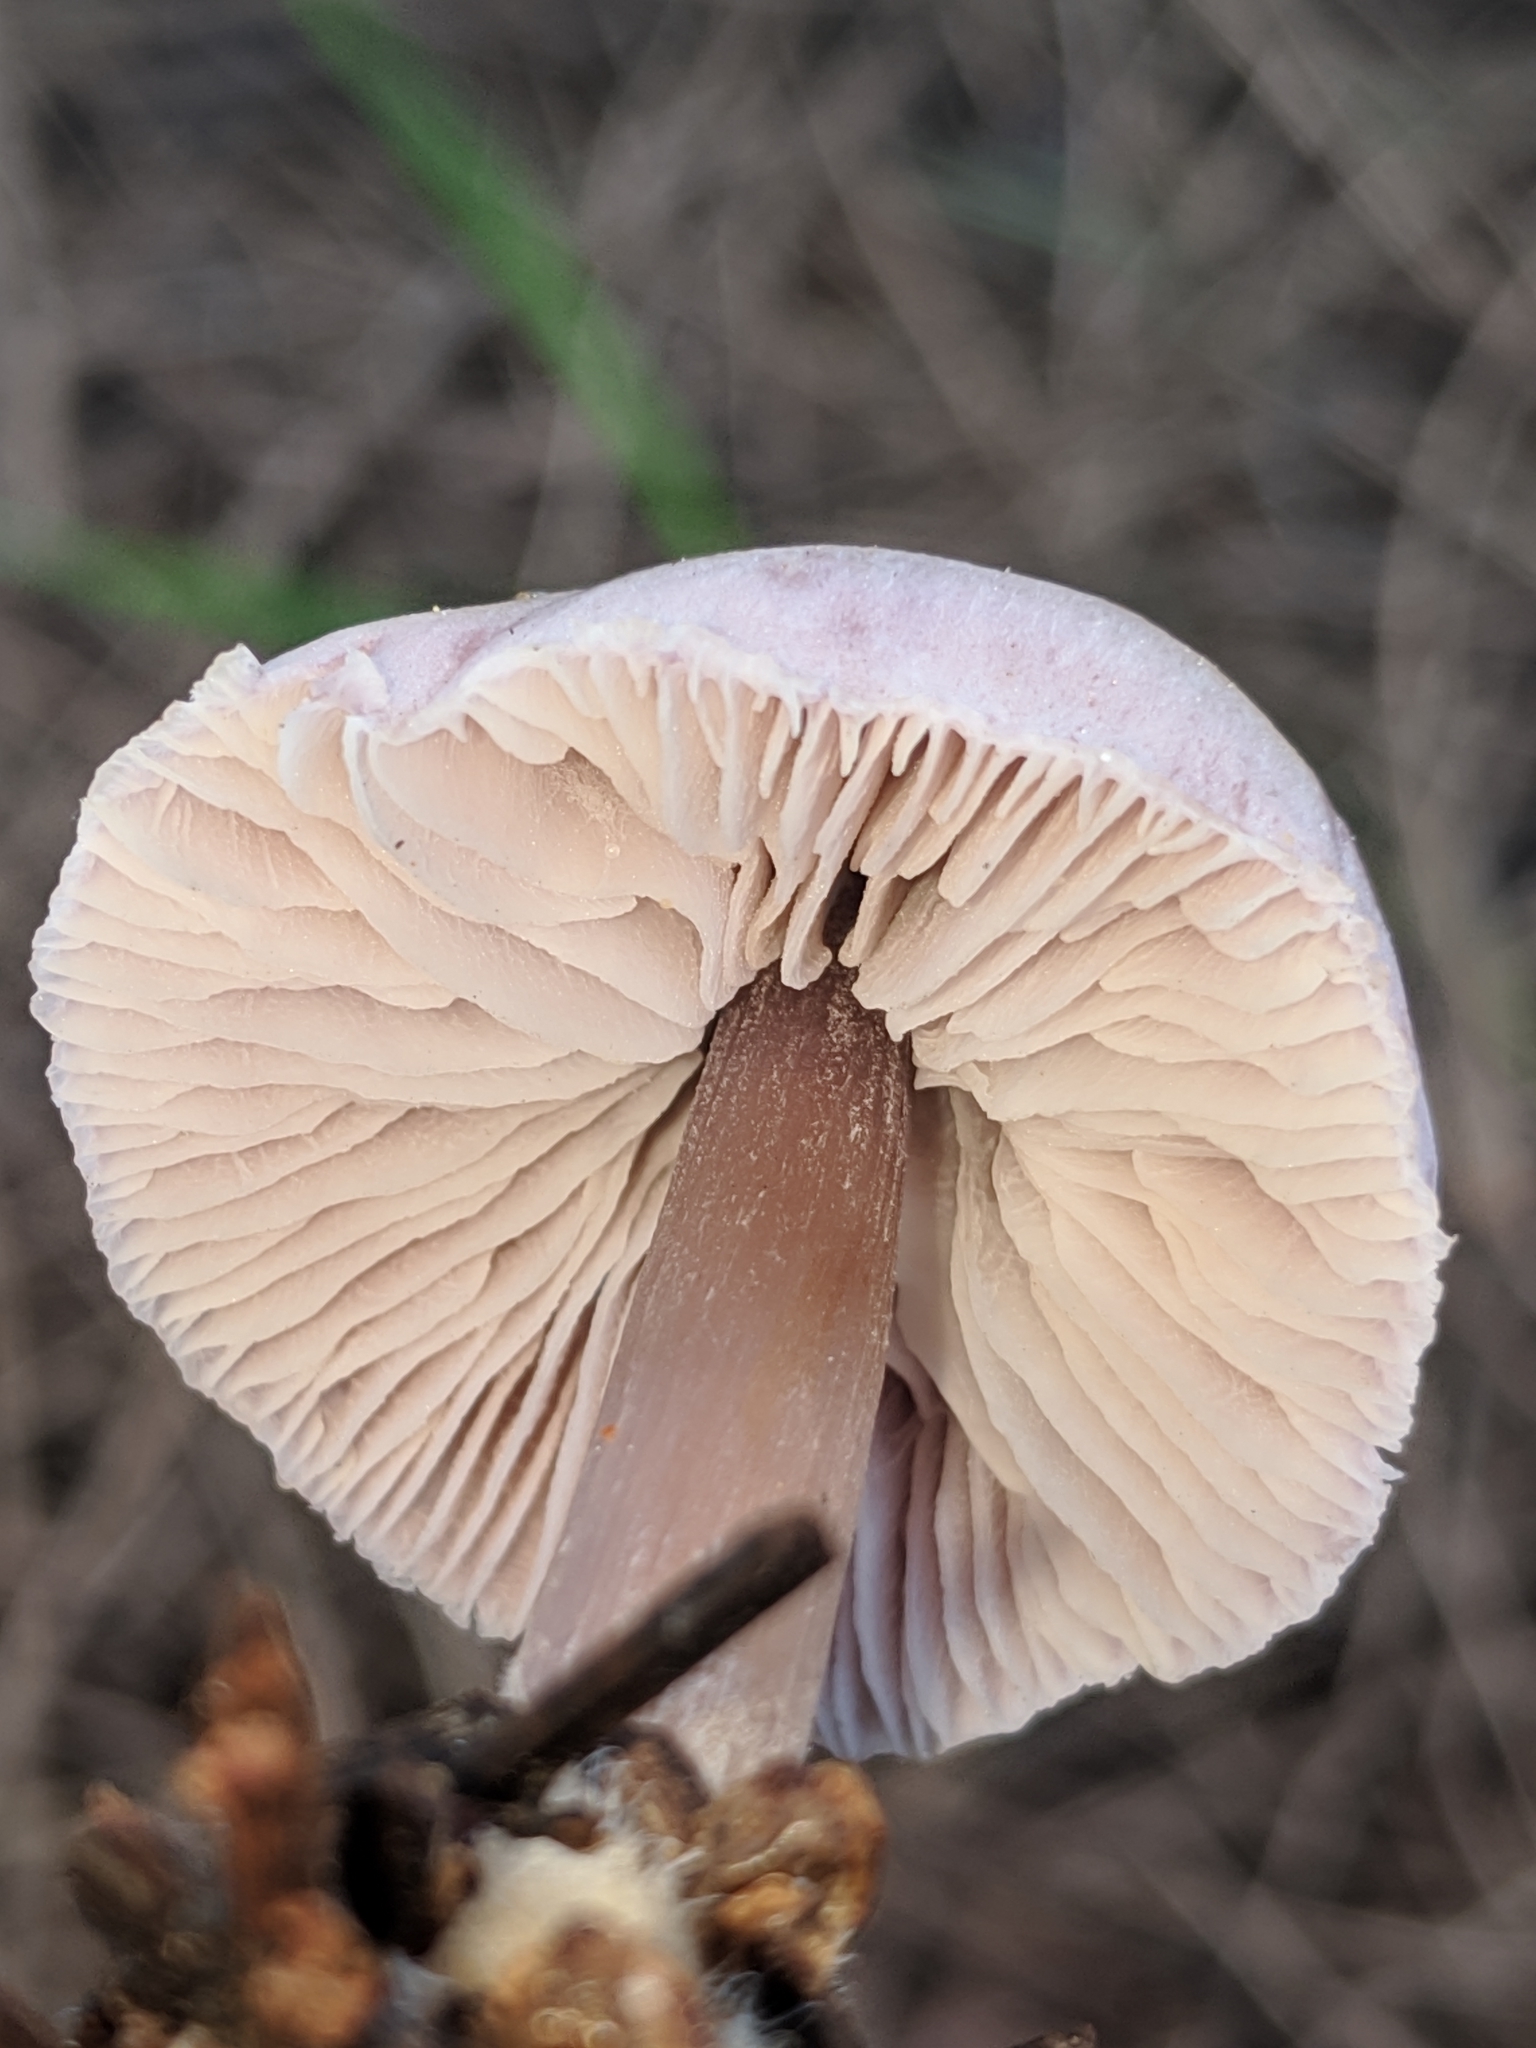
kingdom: Fungi
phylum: Basidiomycota
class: Agaricomycetes
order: Agaricales
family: Mycenaceae
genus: Mycena
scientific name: Mycena pura
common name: Lilac bonnet
